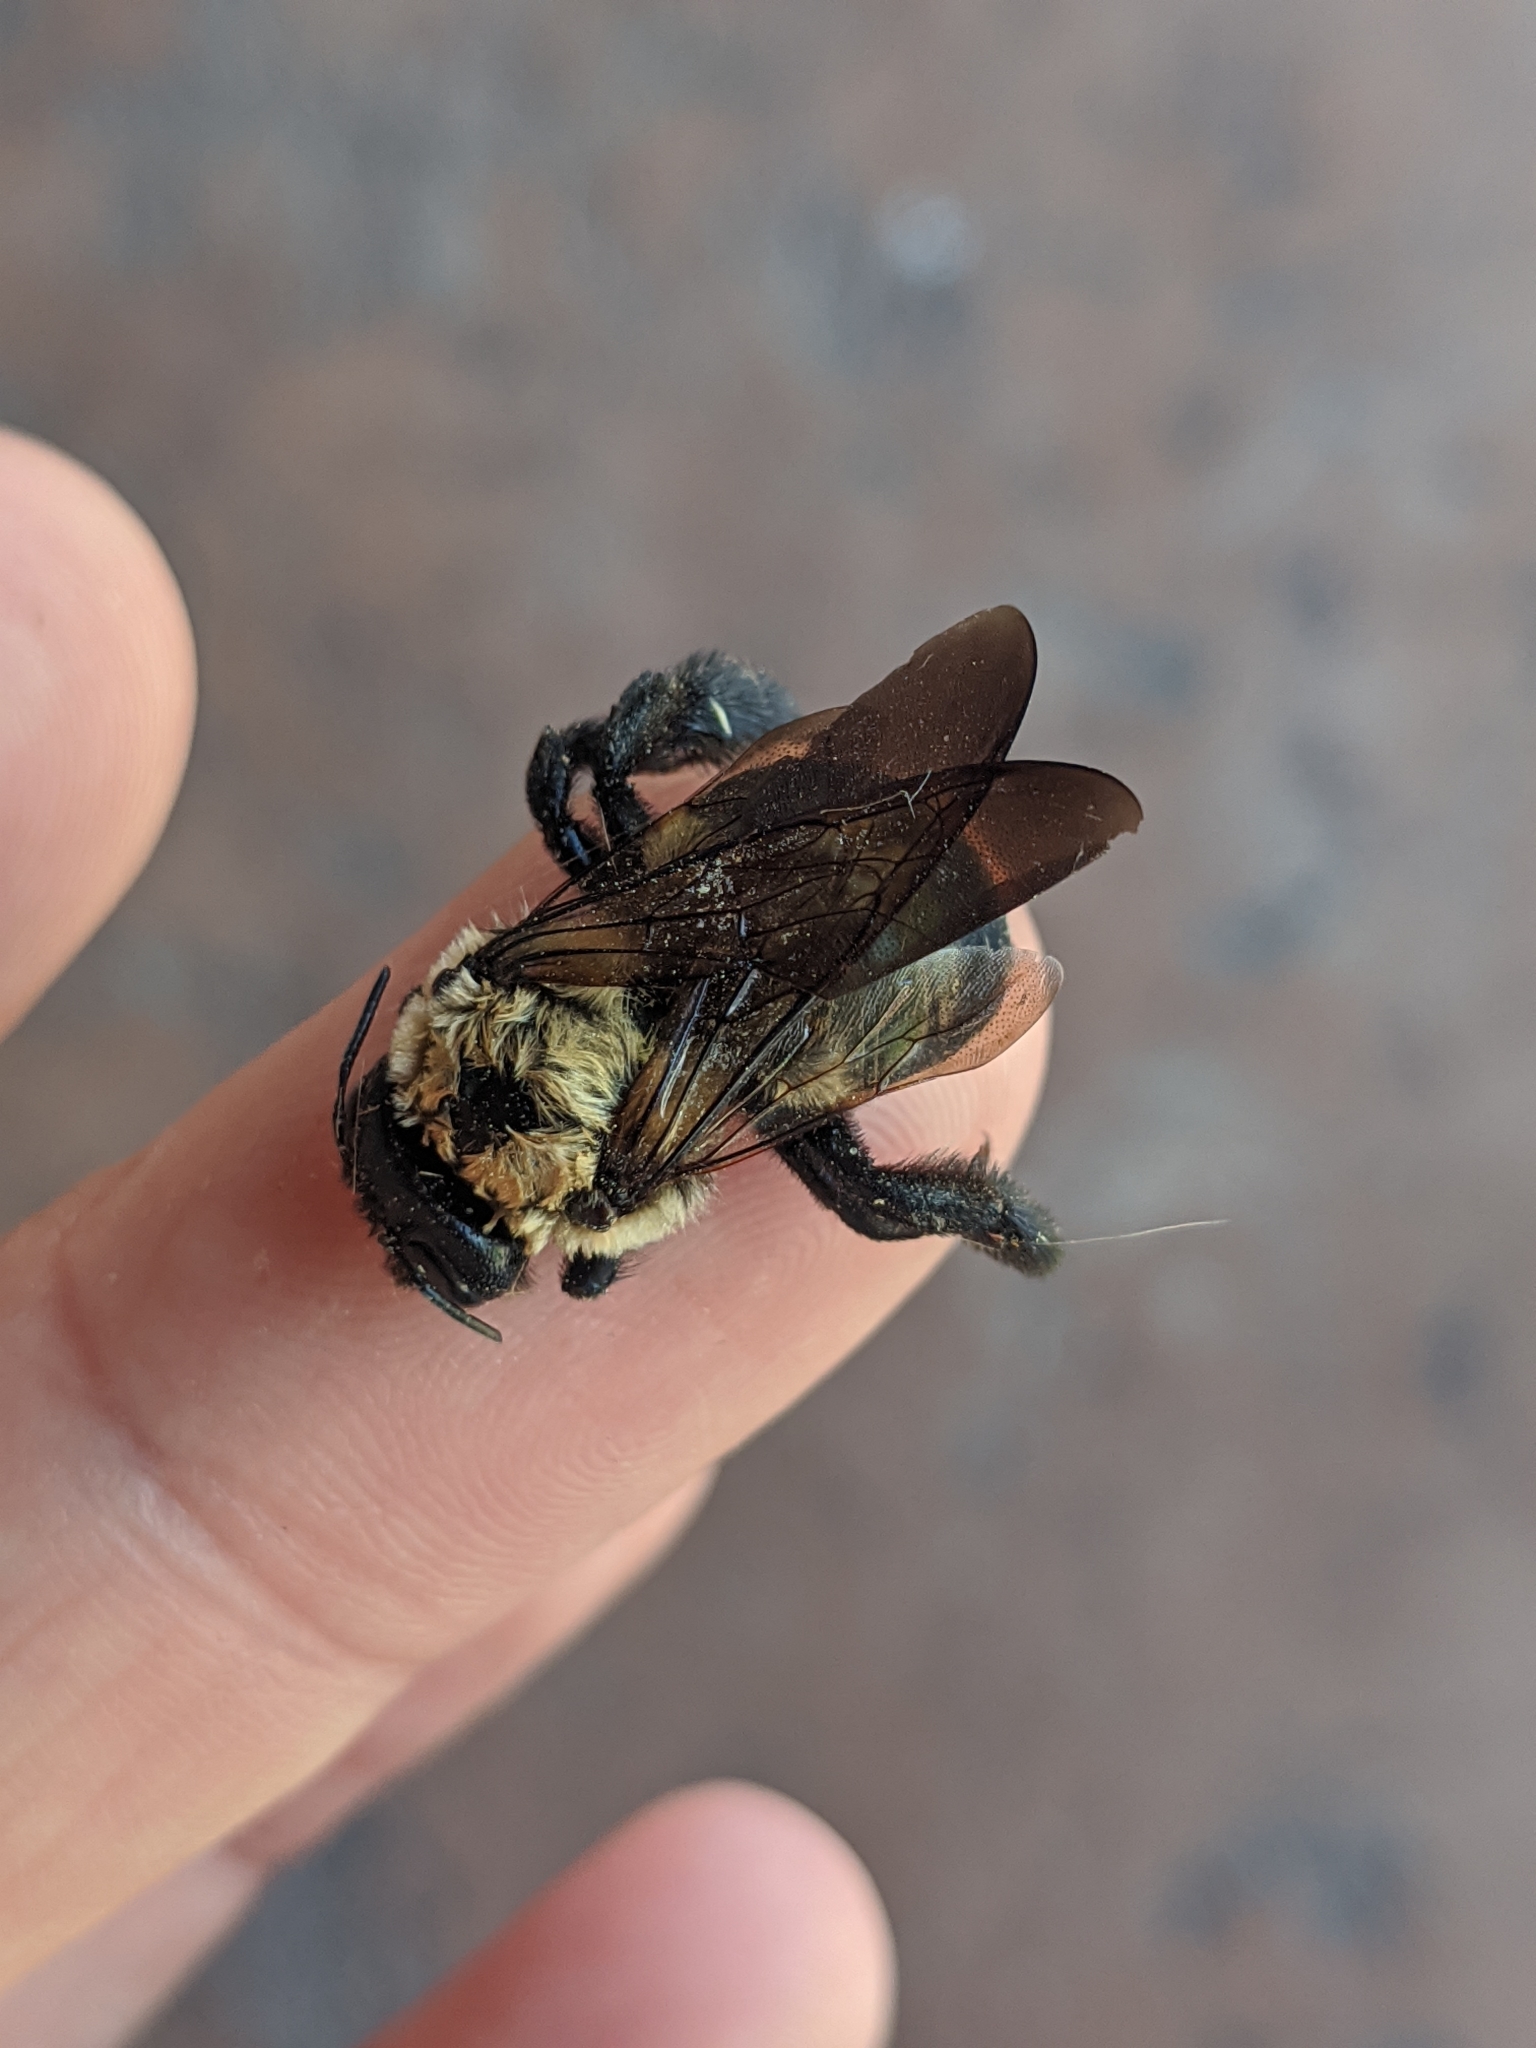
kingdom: Animalia
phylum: Arthropoda
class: Insecta
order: Hymenoptera
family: Apidae
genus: Xylocopa
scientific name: Xylocopa virginica
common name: Carpenter bee
